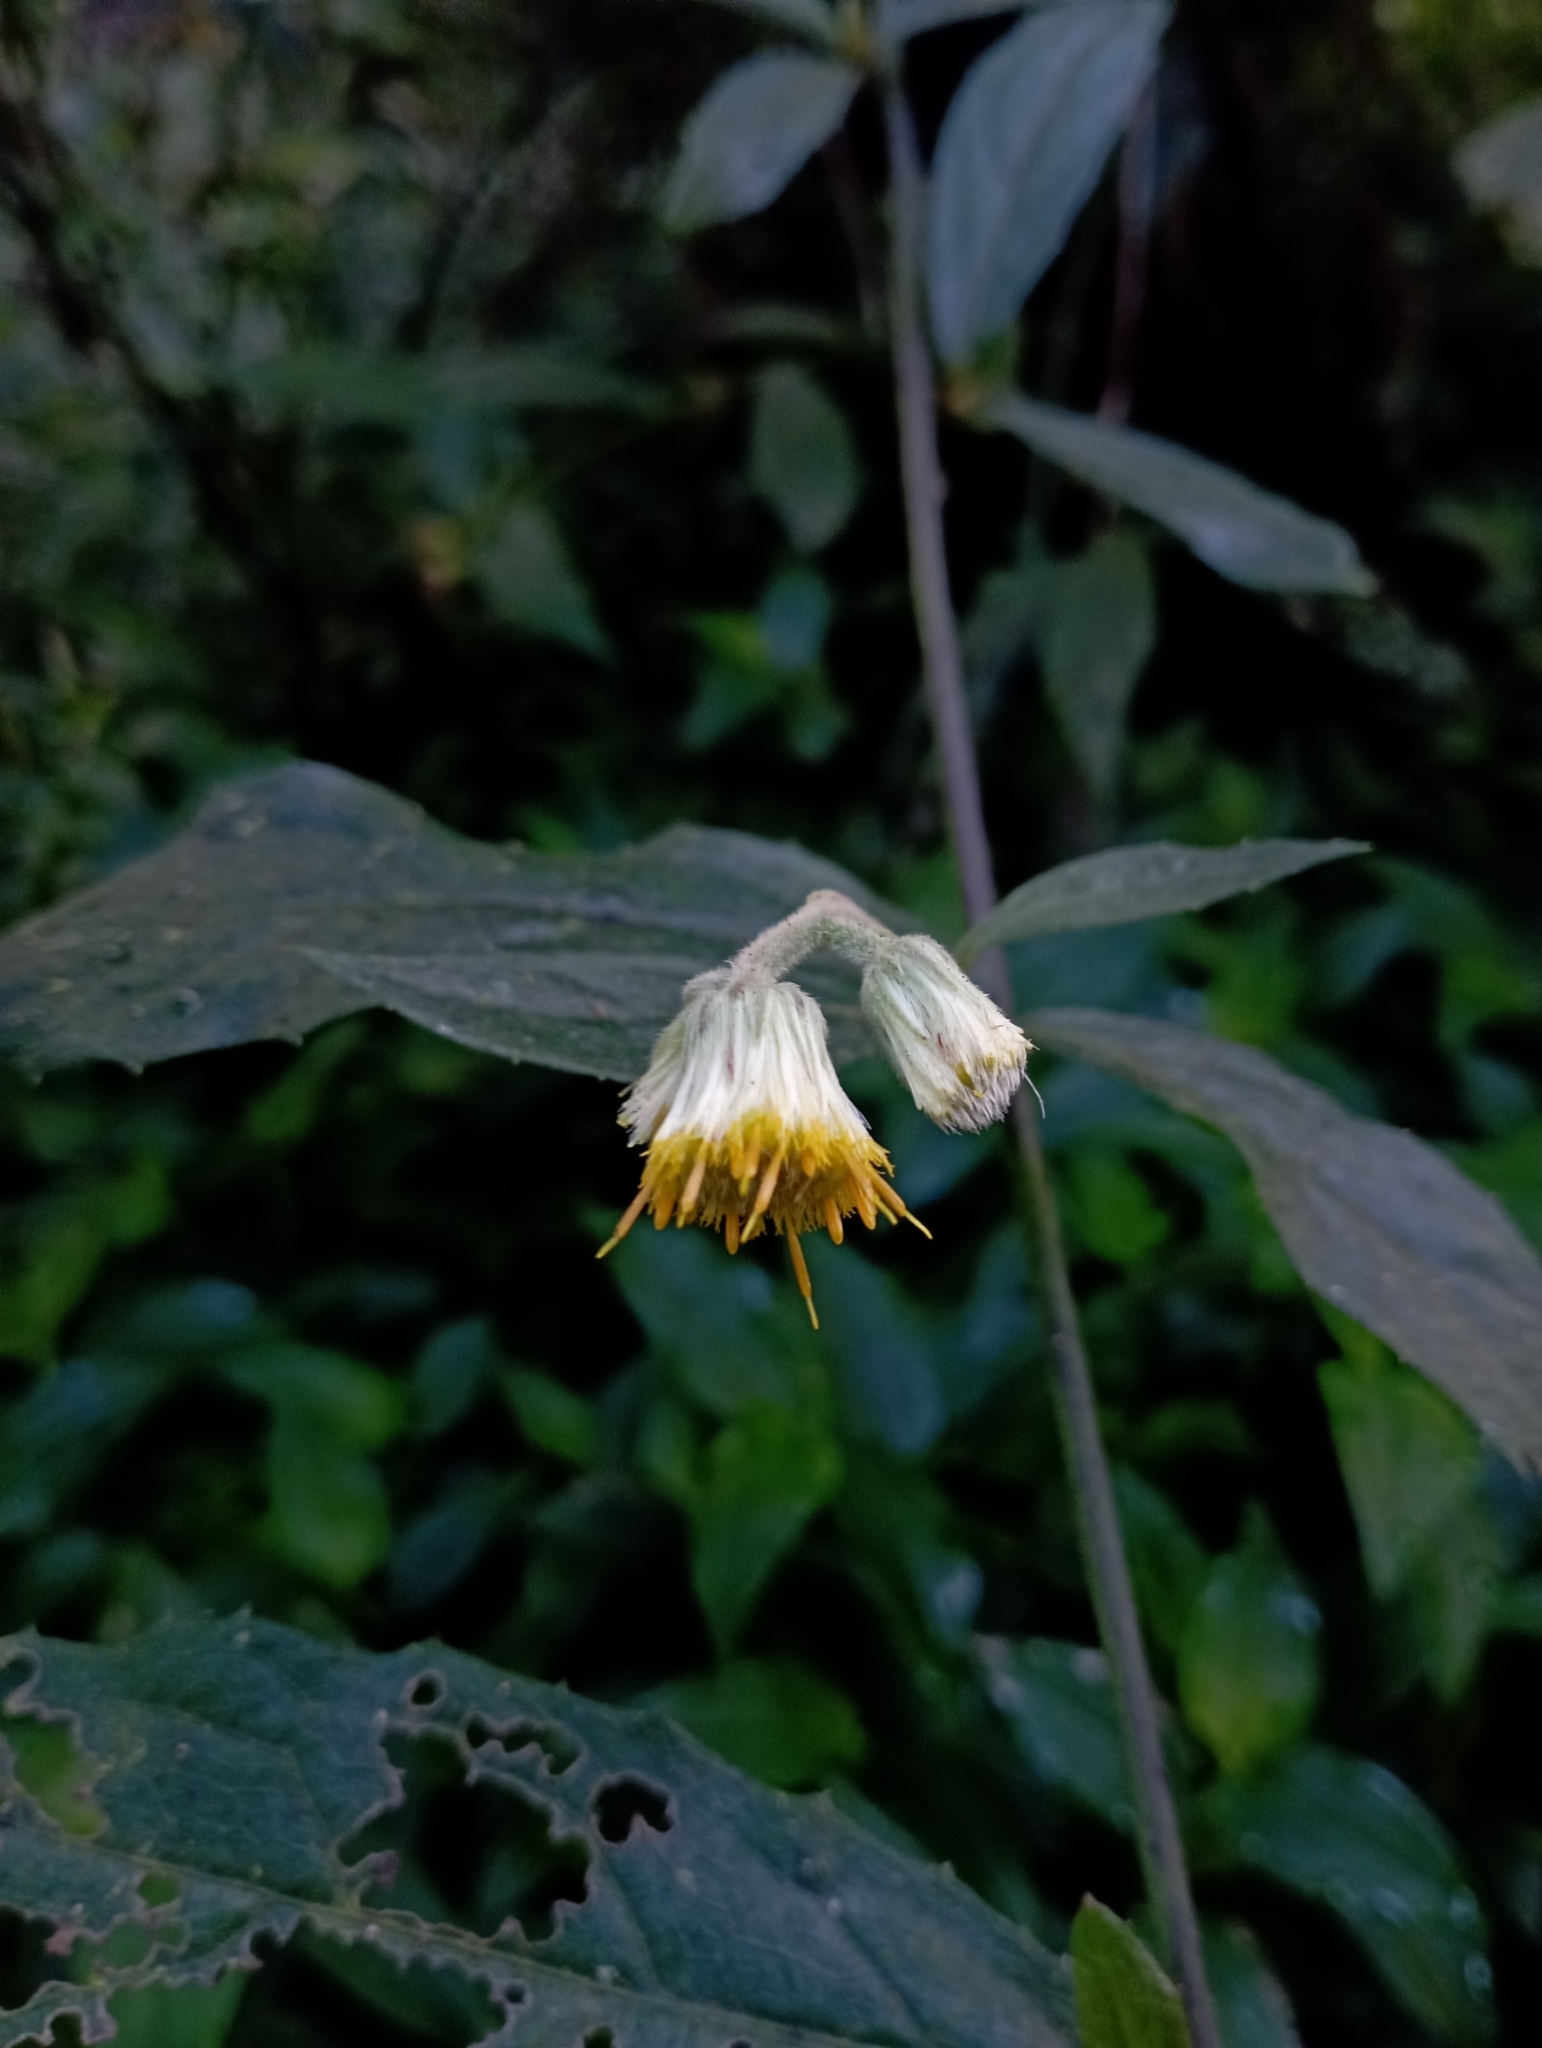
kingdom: Plantae
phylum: Tracheophyta
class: Magnoliopsida
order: Asterales
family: Asteraceae
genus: Blumea
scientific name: Blumea megacephala
